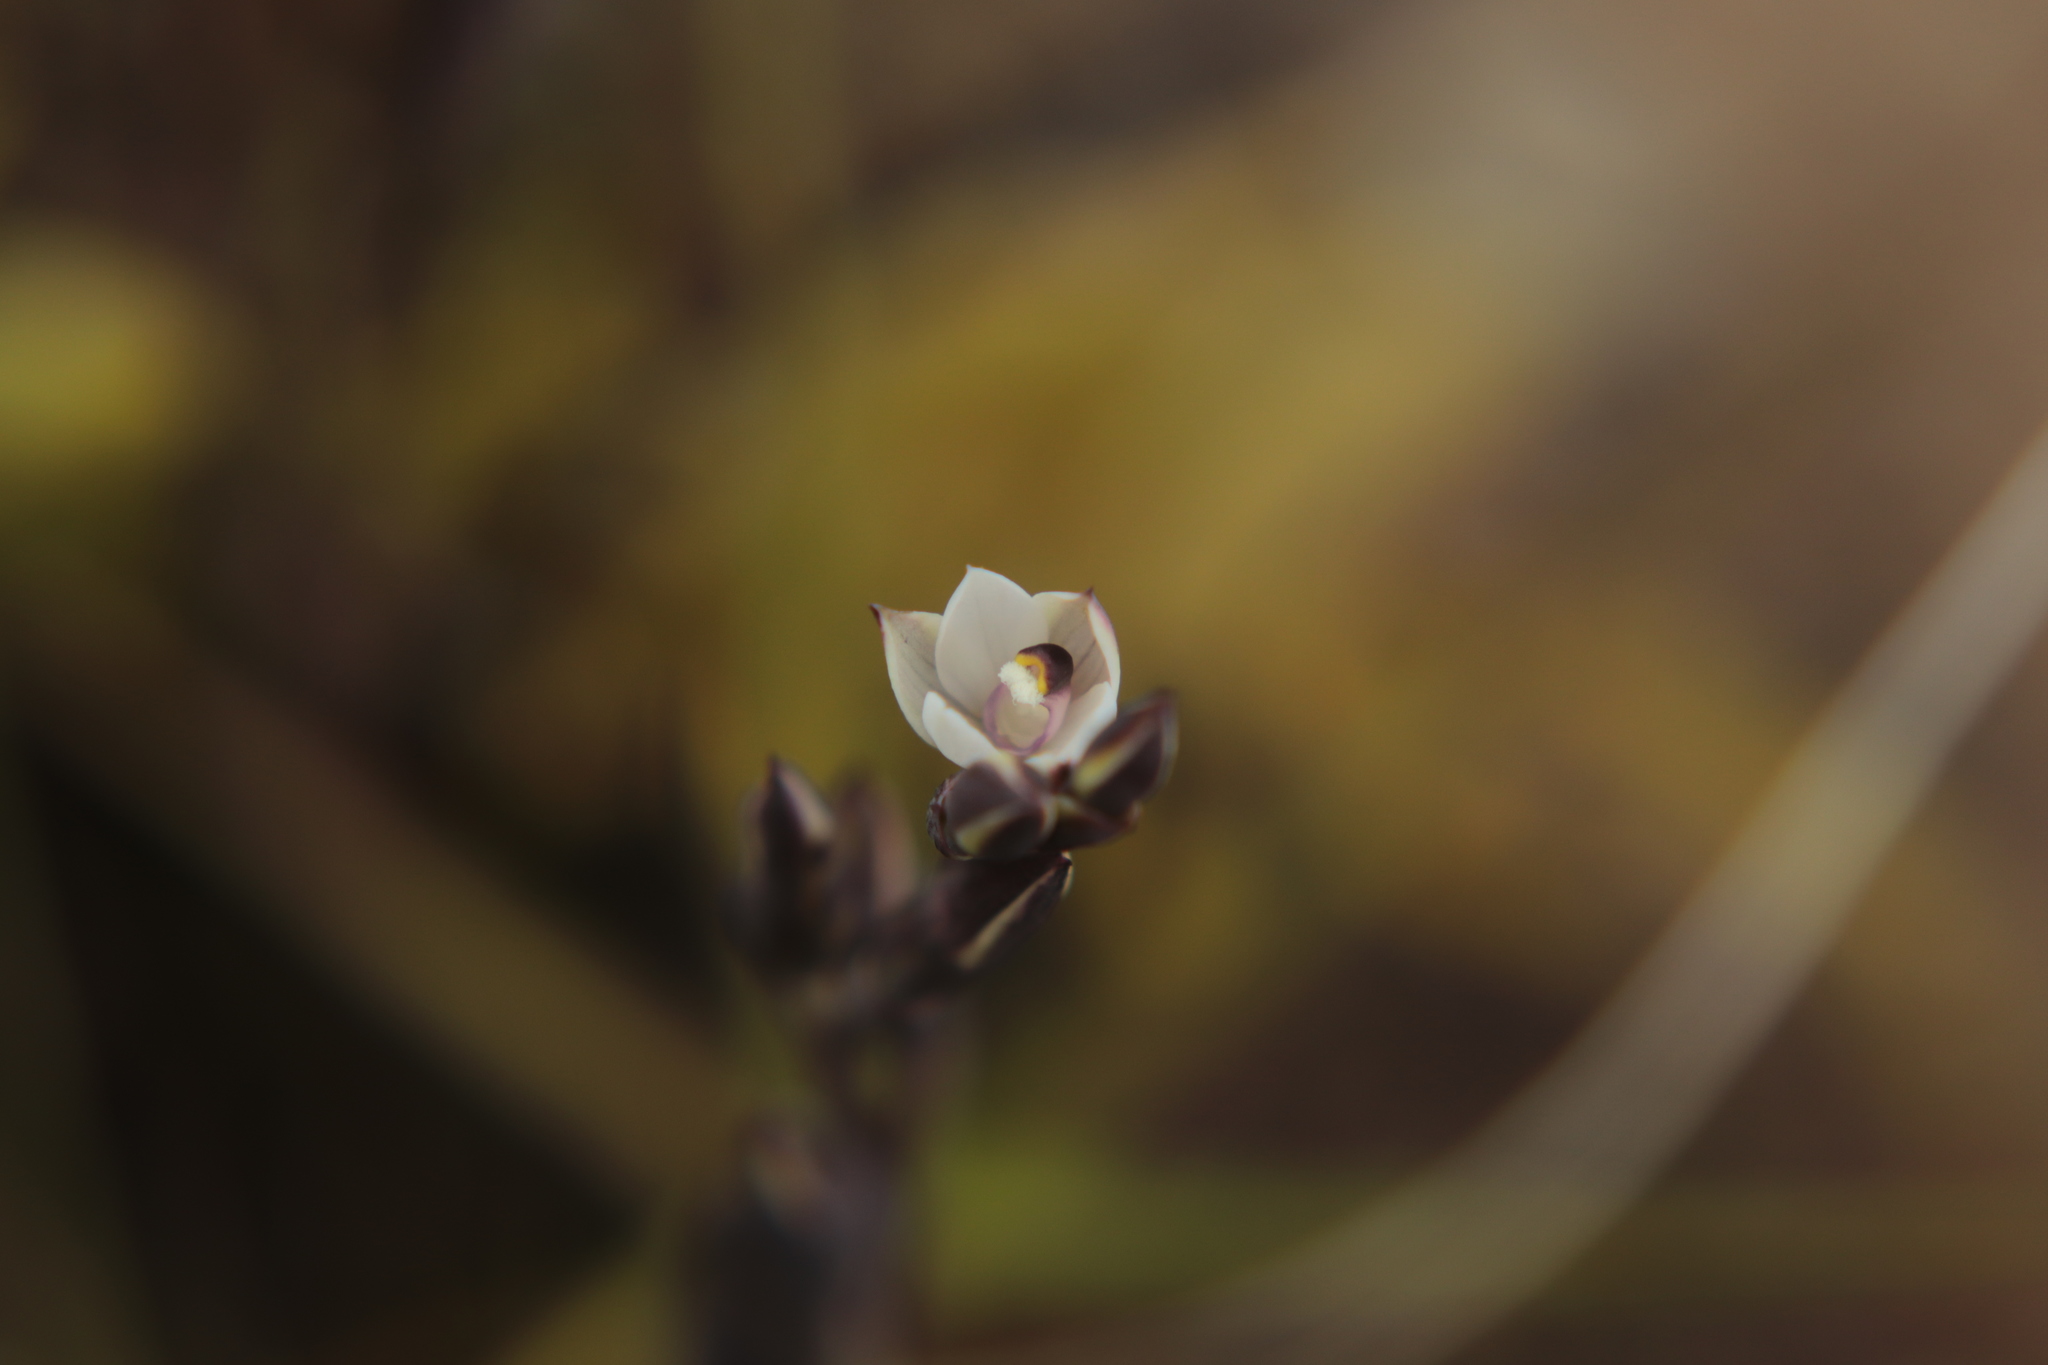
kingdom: Plantae
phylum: Tracheophyta
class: Liliopsida
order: Asparagales
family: Orchidaceae
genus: Thelymitra
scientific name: Thelymitra longifolia
